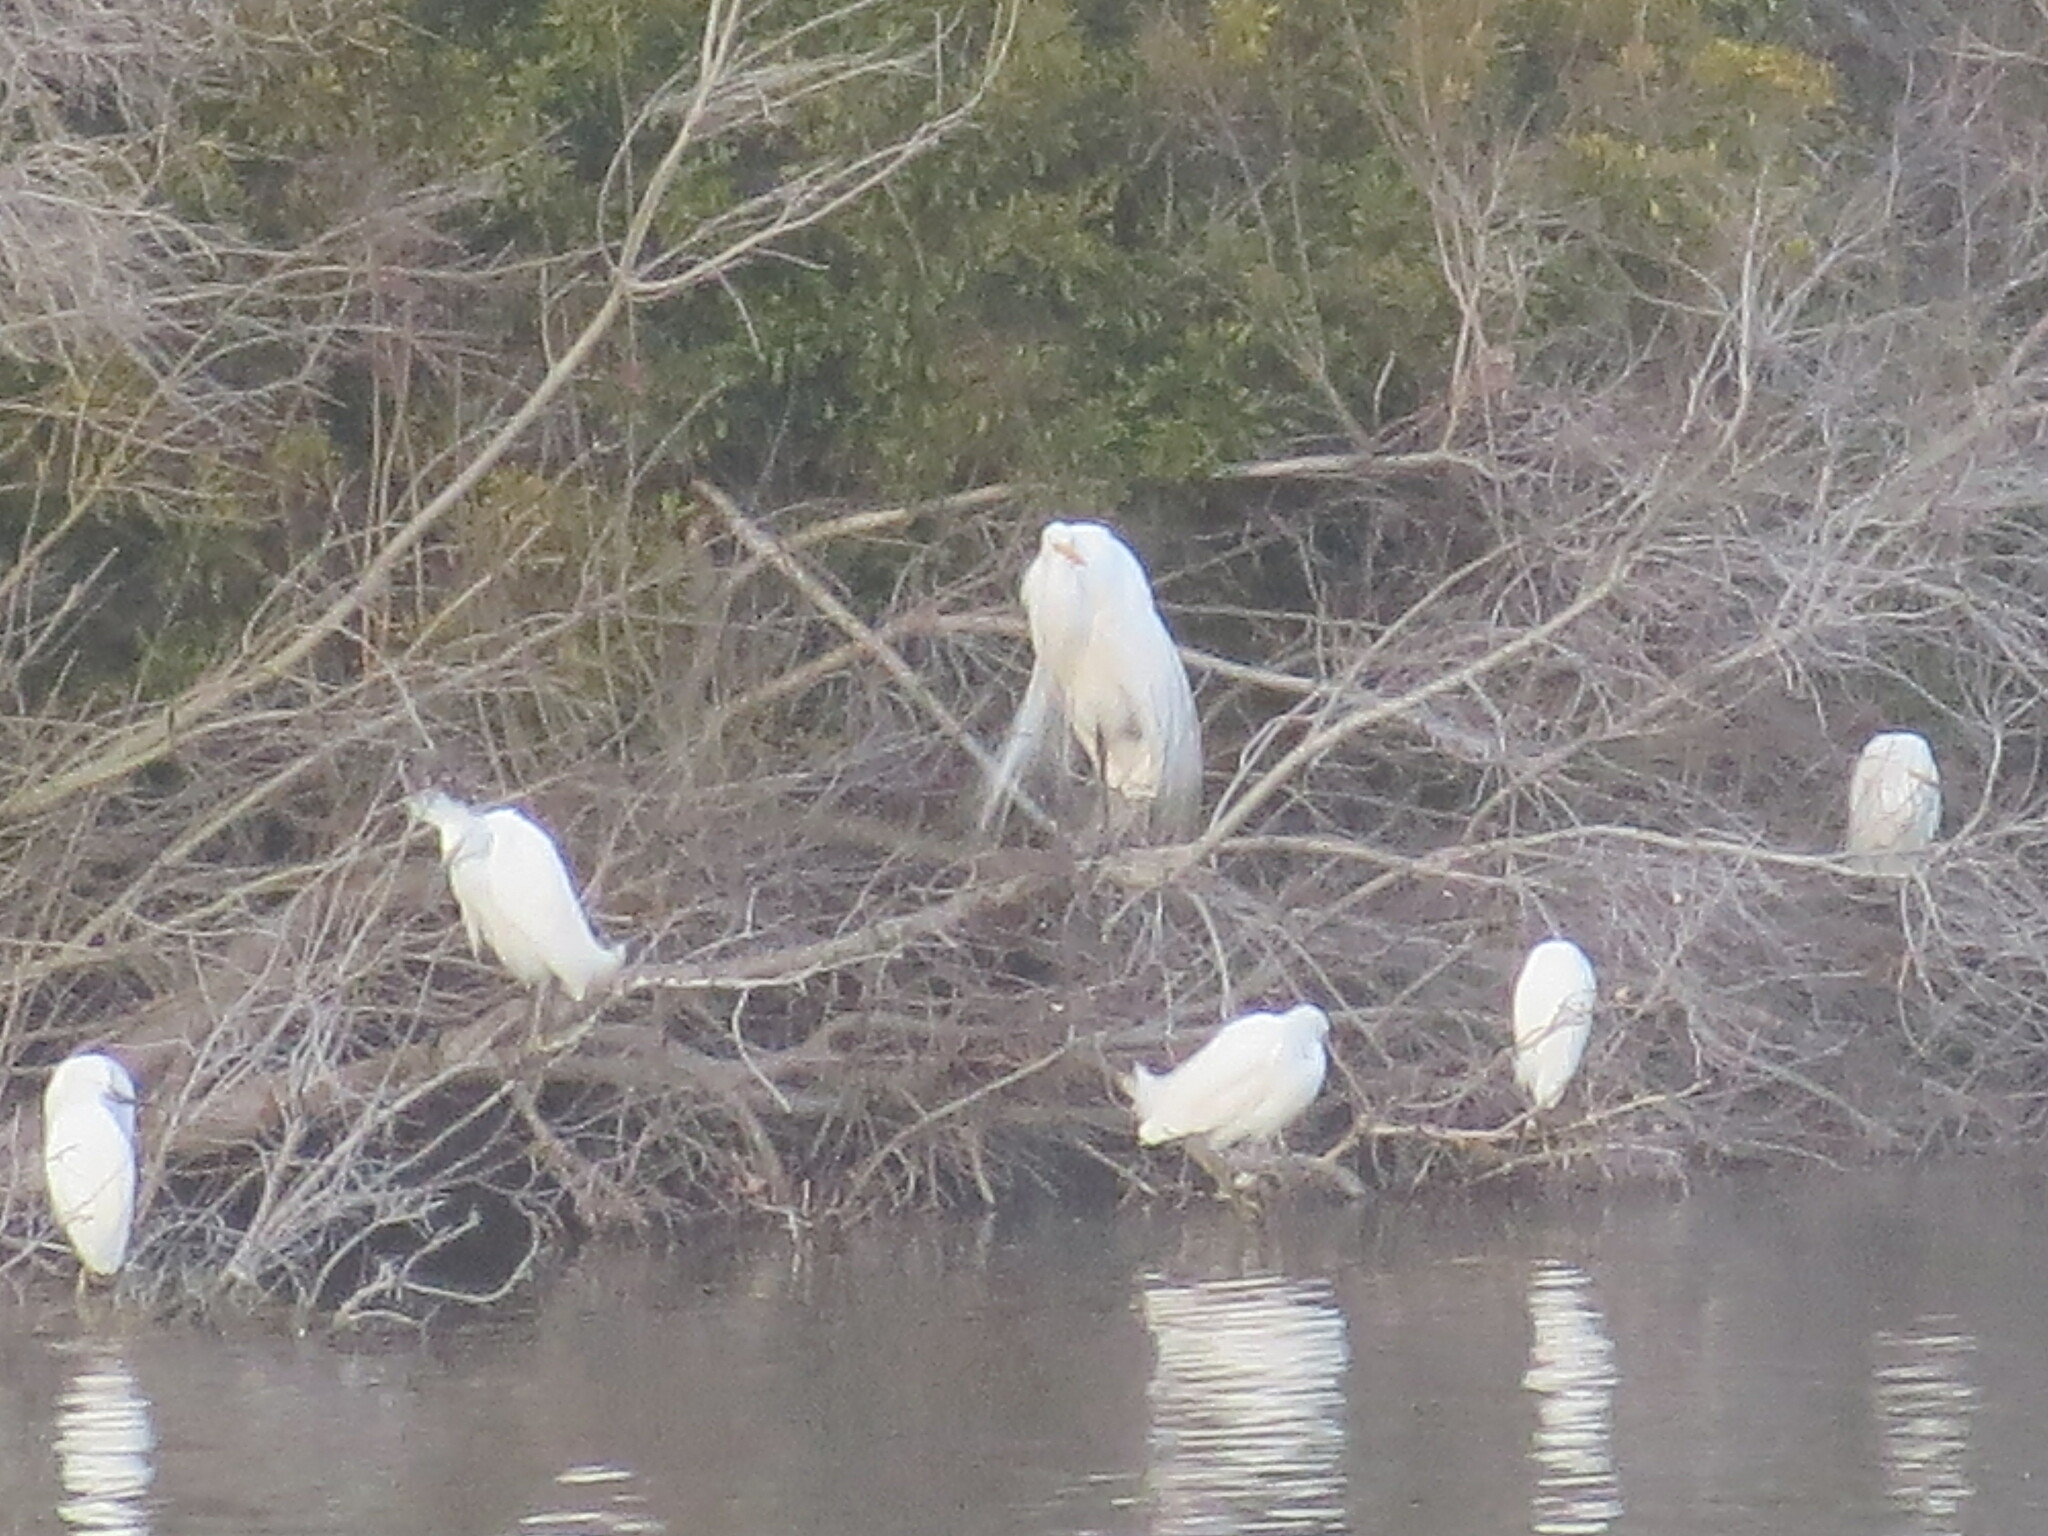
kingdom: Animalia
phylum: Chordata
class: Aves
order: Pelecaniformes
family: Ardeidae
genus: Egretta
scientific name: Egretta thula
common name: Snowy egret
